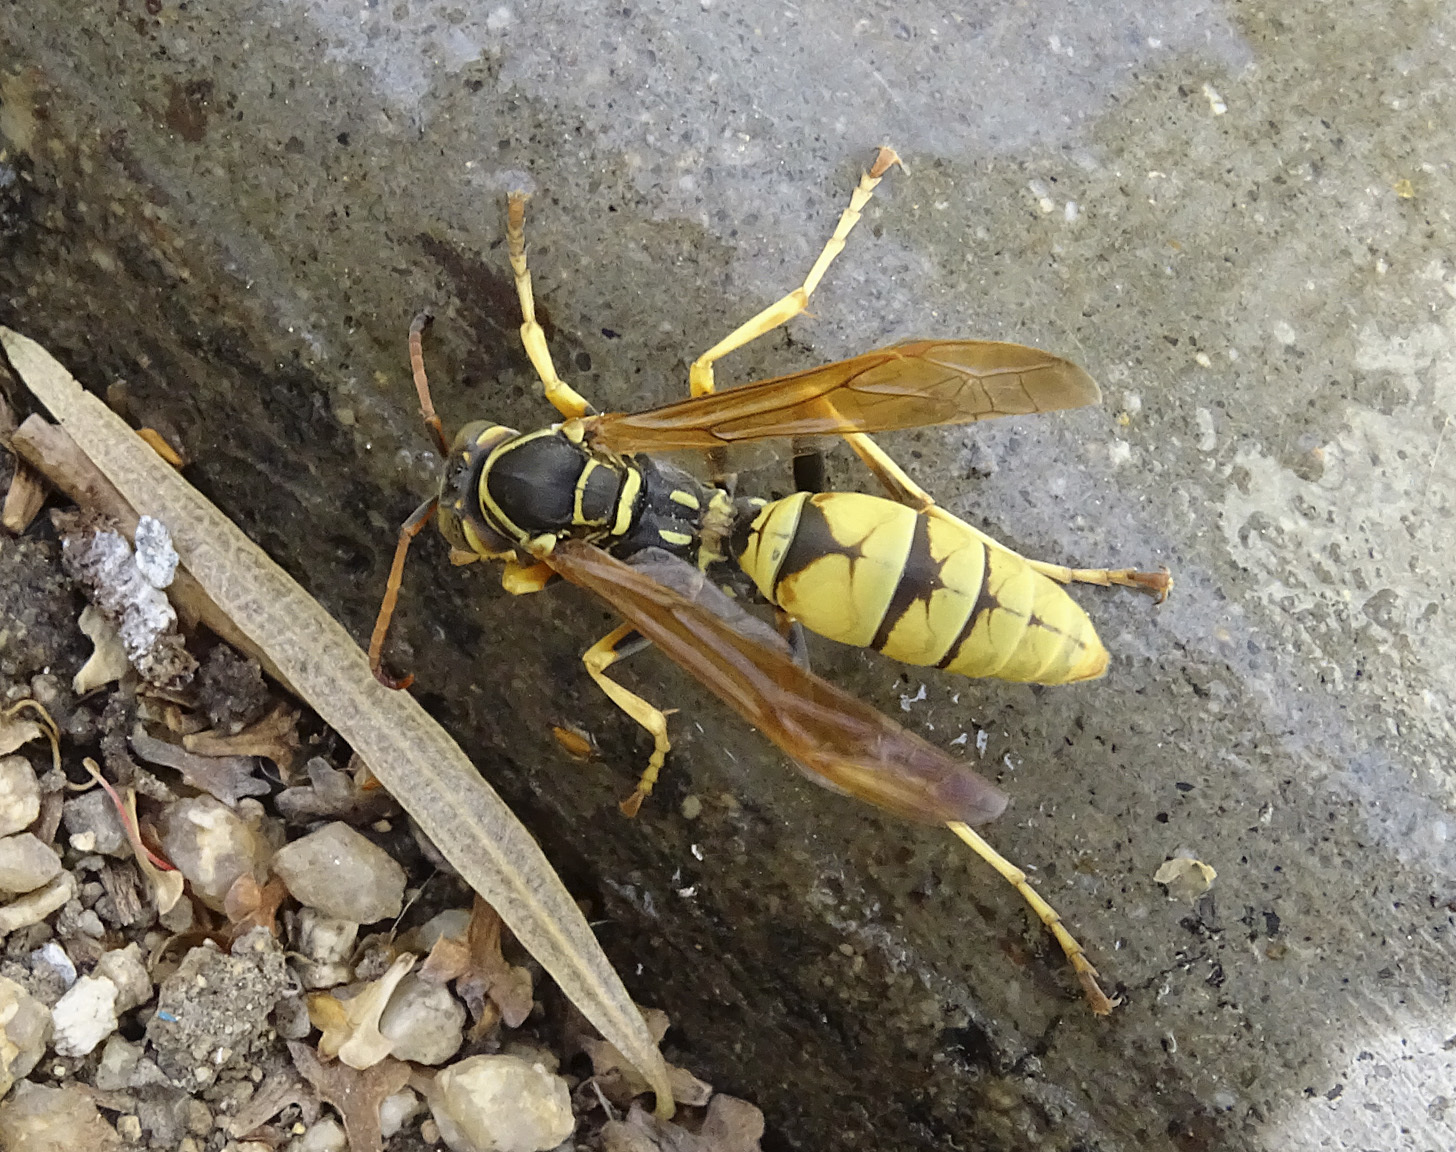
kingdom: Animalia
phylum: Arthropoda
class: Insecta
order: Hymenoptera
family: Eumenidae
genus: Polistes
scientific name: Polistes aurifer
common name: Paper wasp
